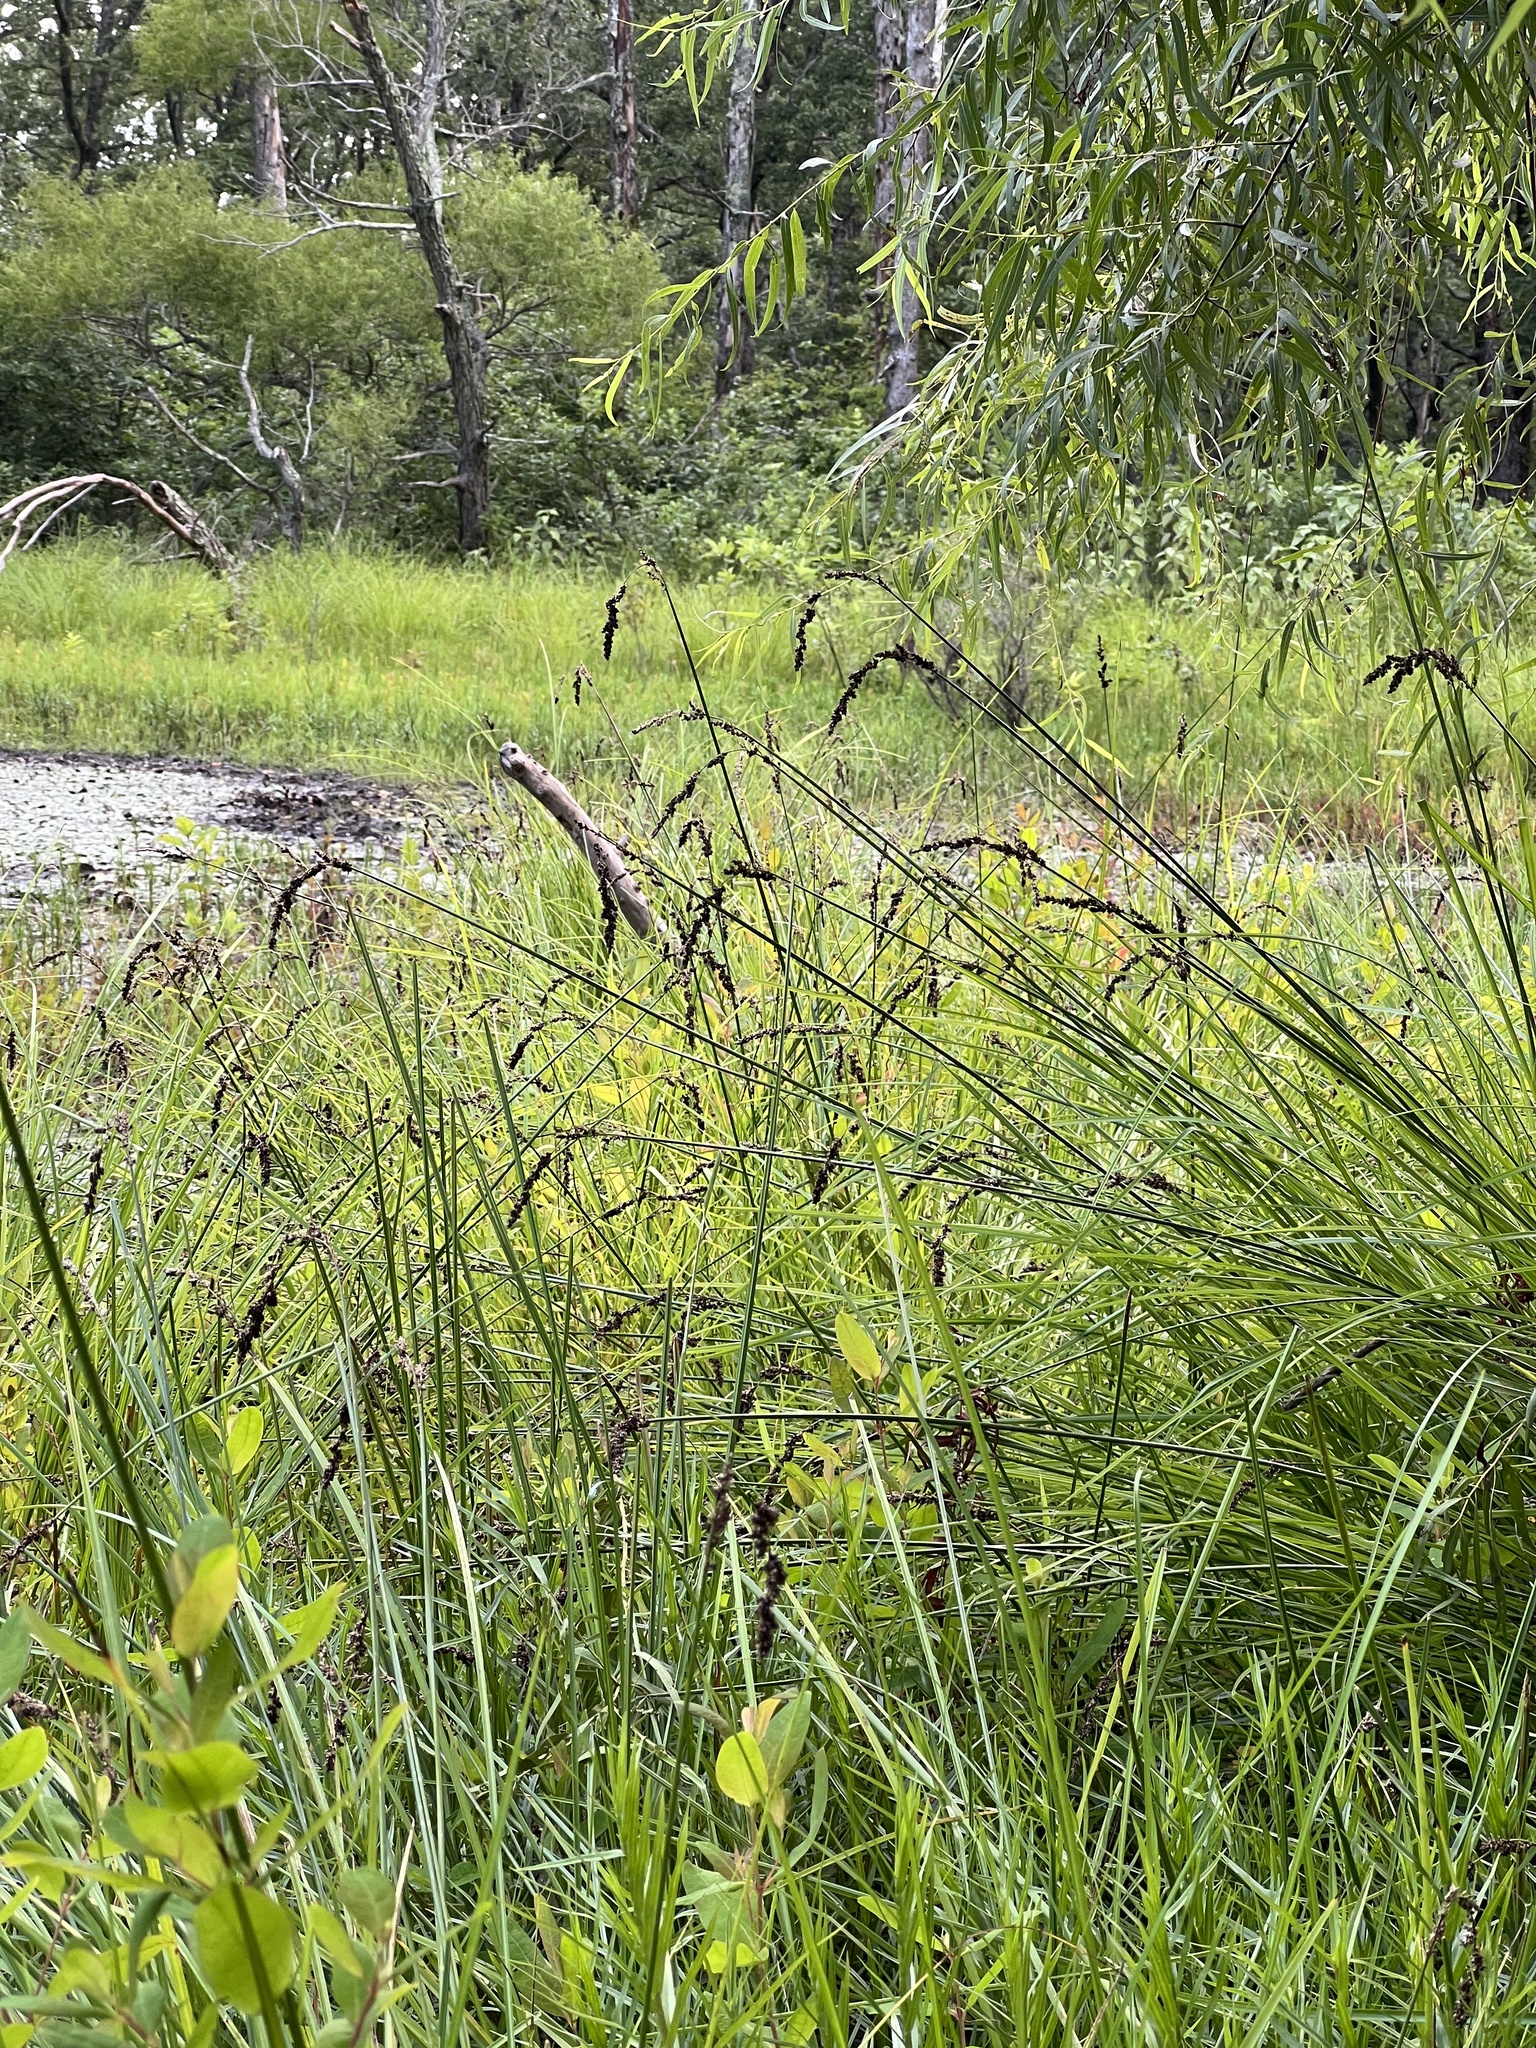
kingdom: Plantae
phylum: Tracheophyta
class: Liliopsida
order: Poales
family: Cyperaceae
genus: Carex
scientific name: Carex decomposita
